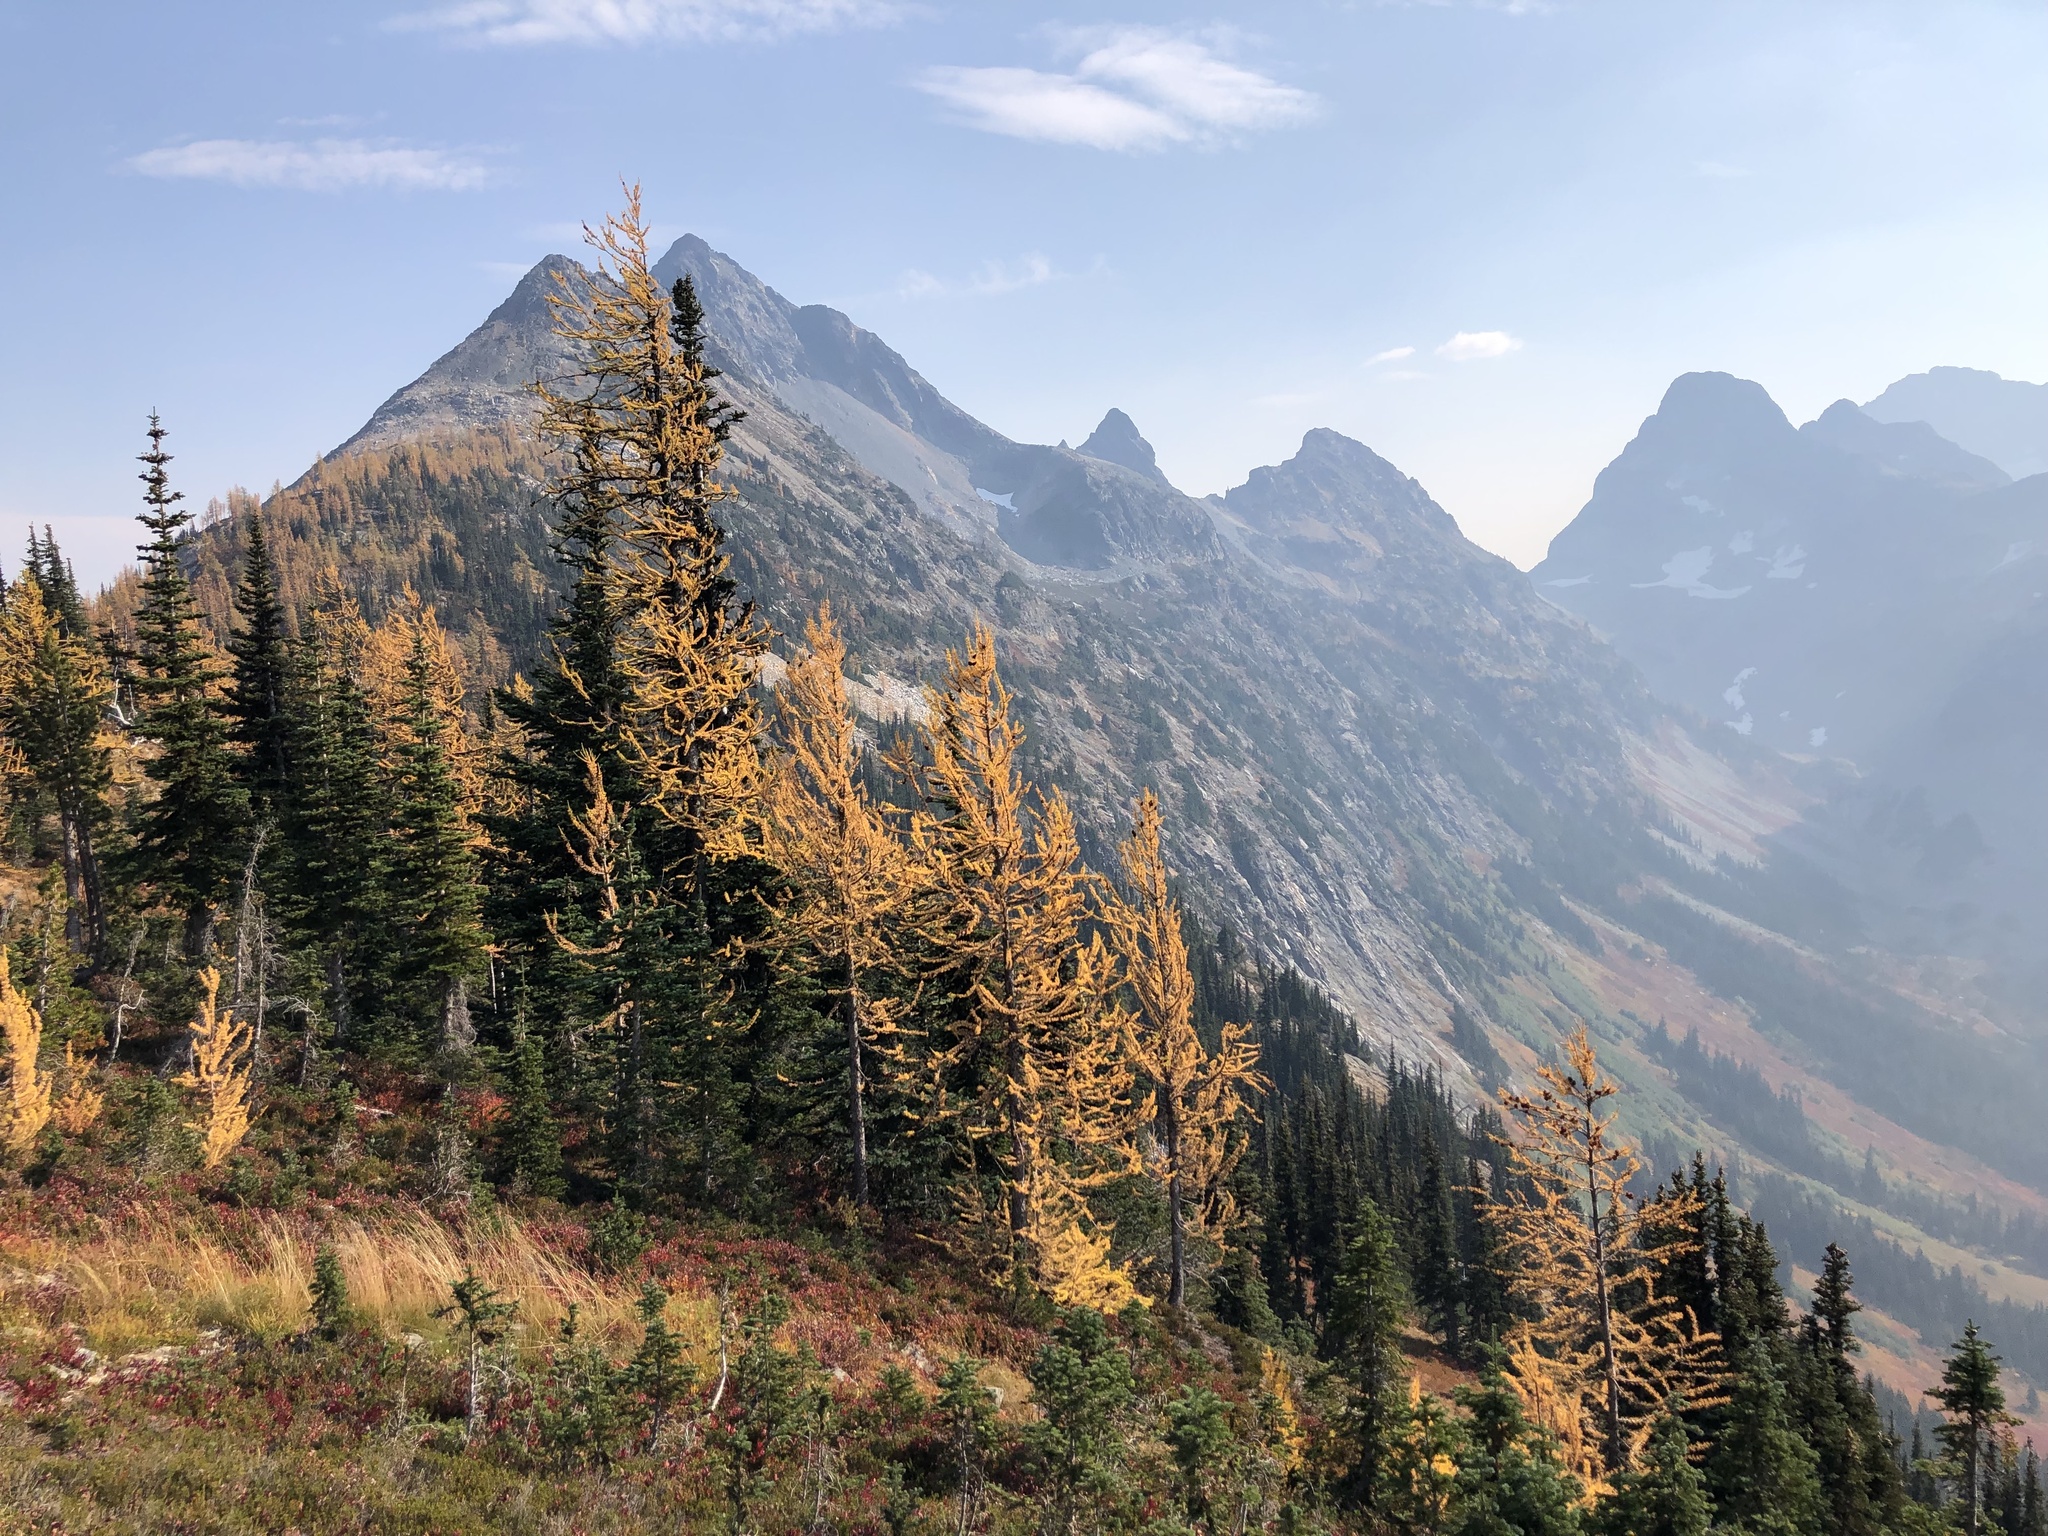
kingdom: Plantae
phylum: Tracheophyta
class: Pinopsida
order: Pinales
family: Pinaceae
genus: Larix
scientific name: Larix lyallii
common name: Alpine larch
